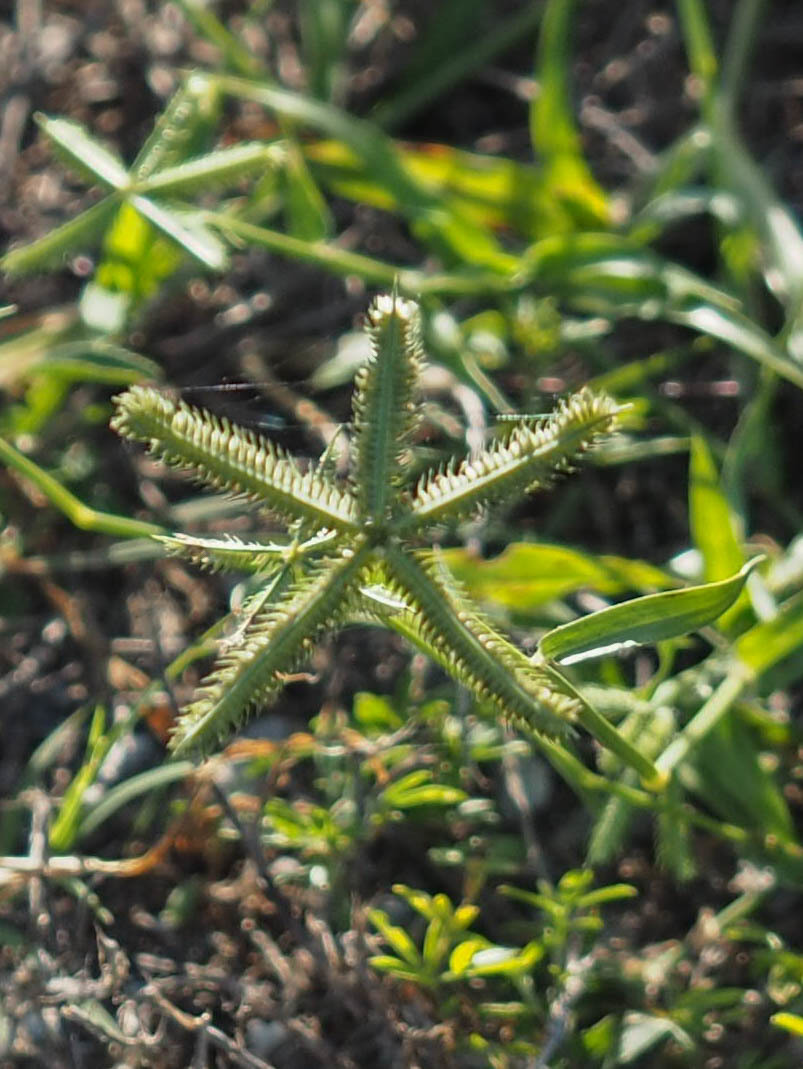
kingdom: Plantae
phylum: Tracheophyta
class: Liliopsida
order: Poales
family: Poaceae
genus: Dactyloctenium
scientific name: Dactyloctenium aegyptium
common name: Egyptian grass
